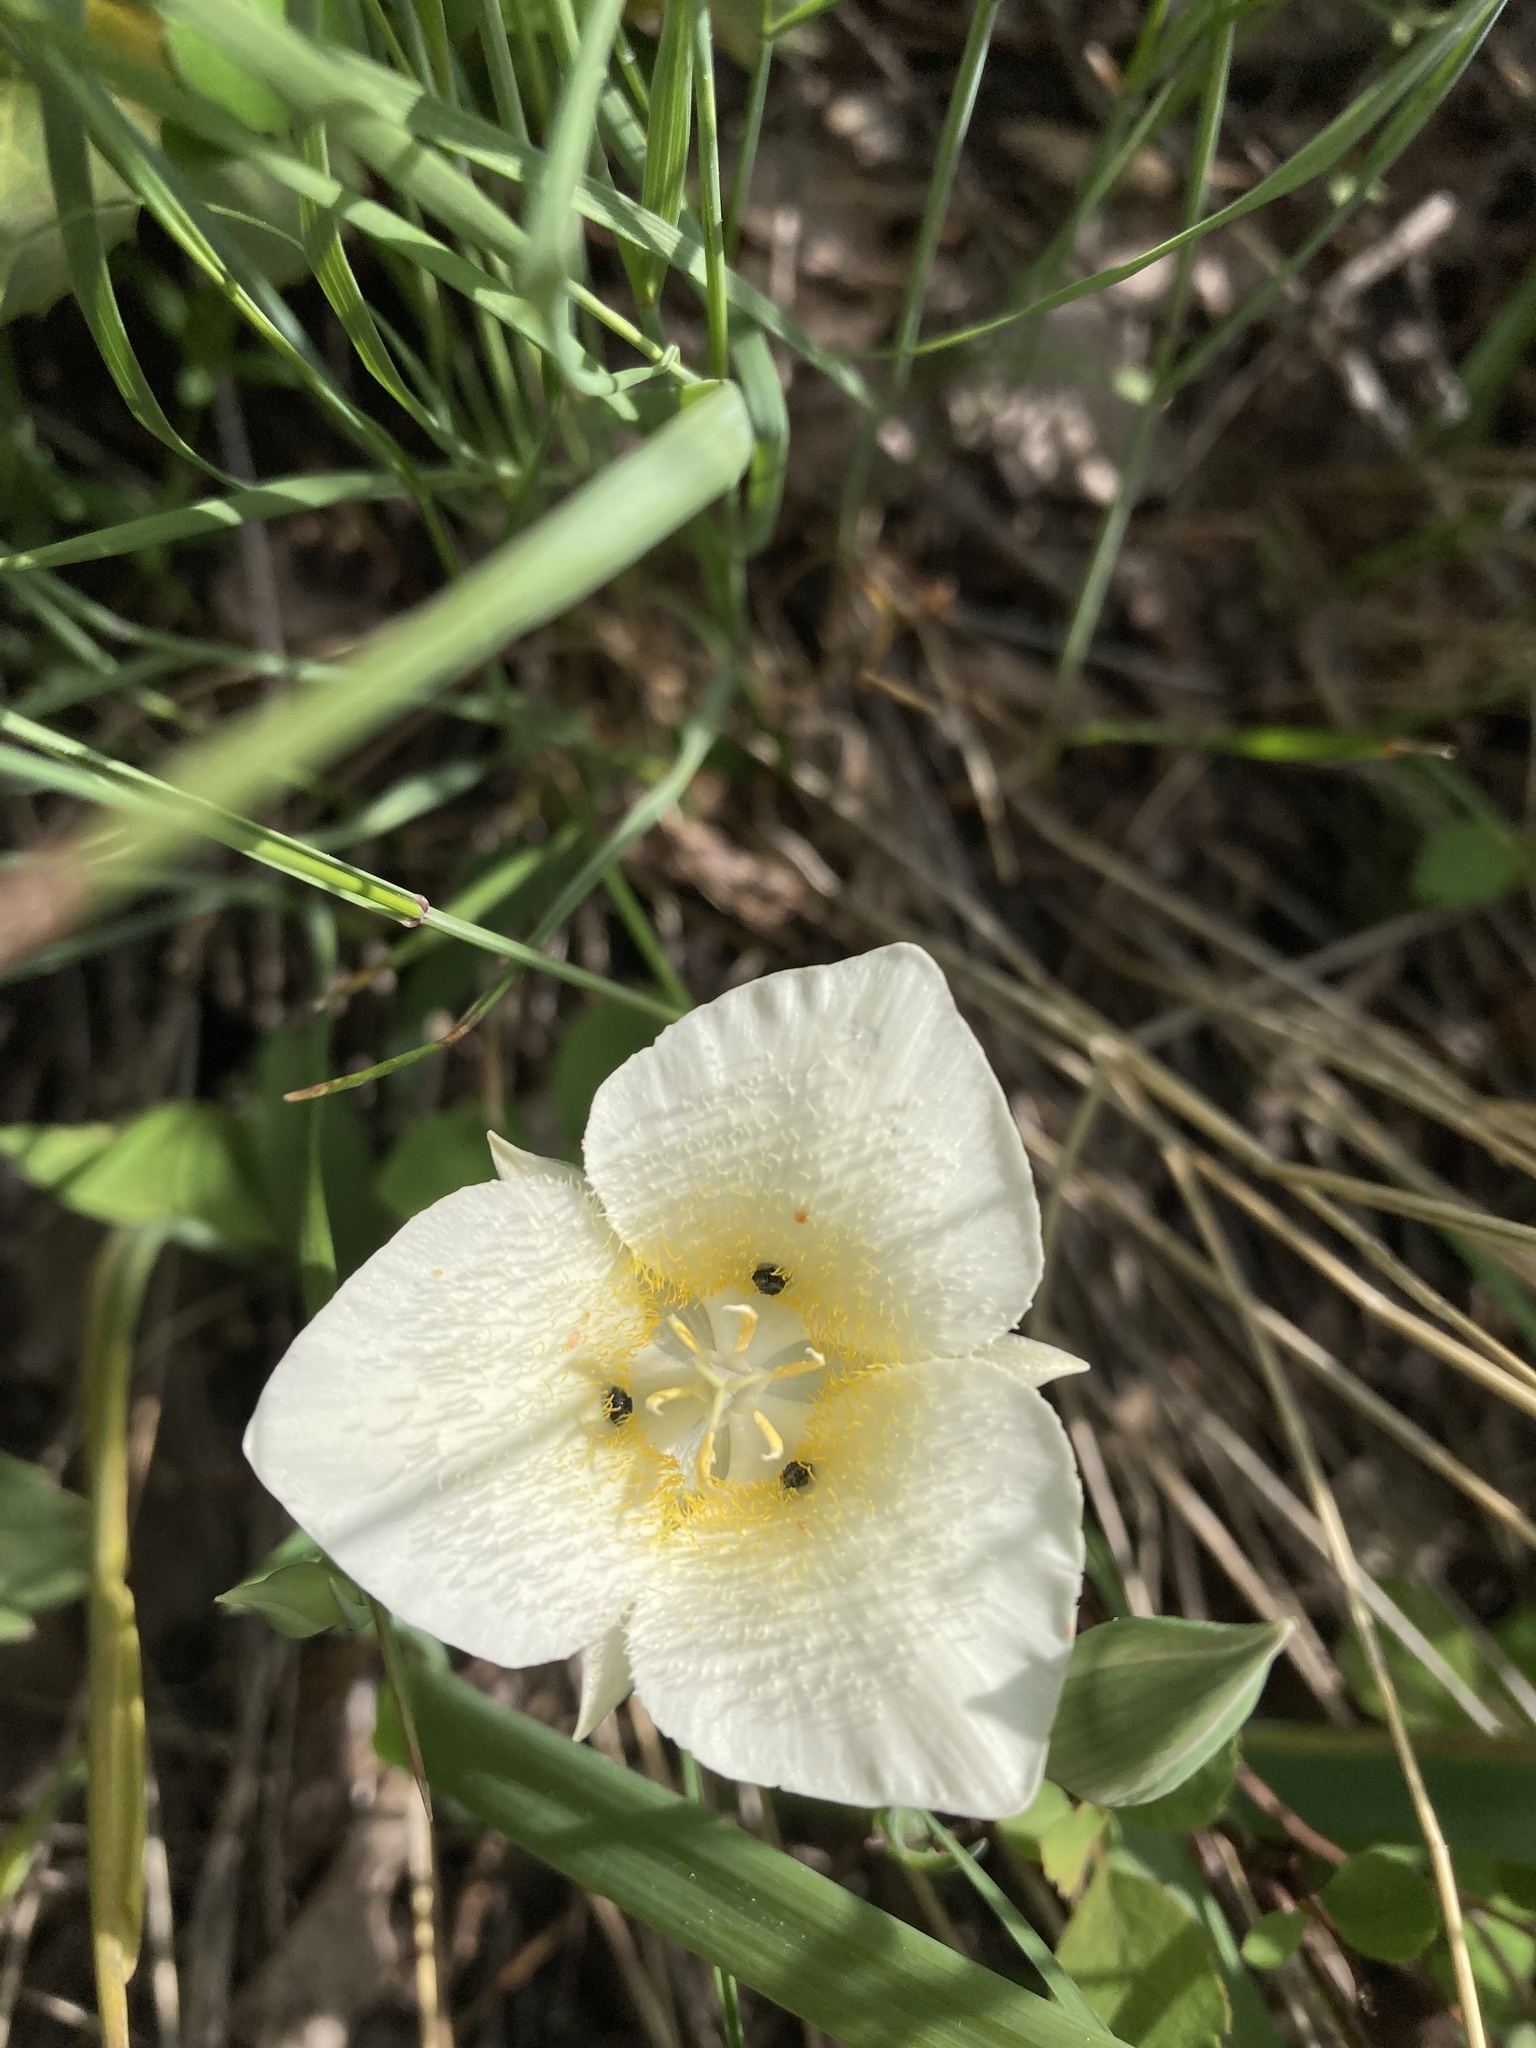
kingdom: Plantae
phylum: Tracheophyta
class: Liliopsida
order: Liliales
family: Liliaceae
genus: Calochortus
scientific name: Calochortus apiculatus
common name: Baker's mariposa lily
